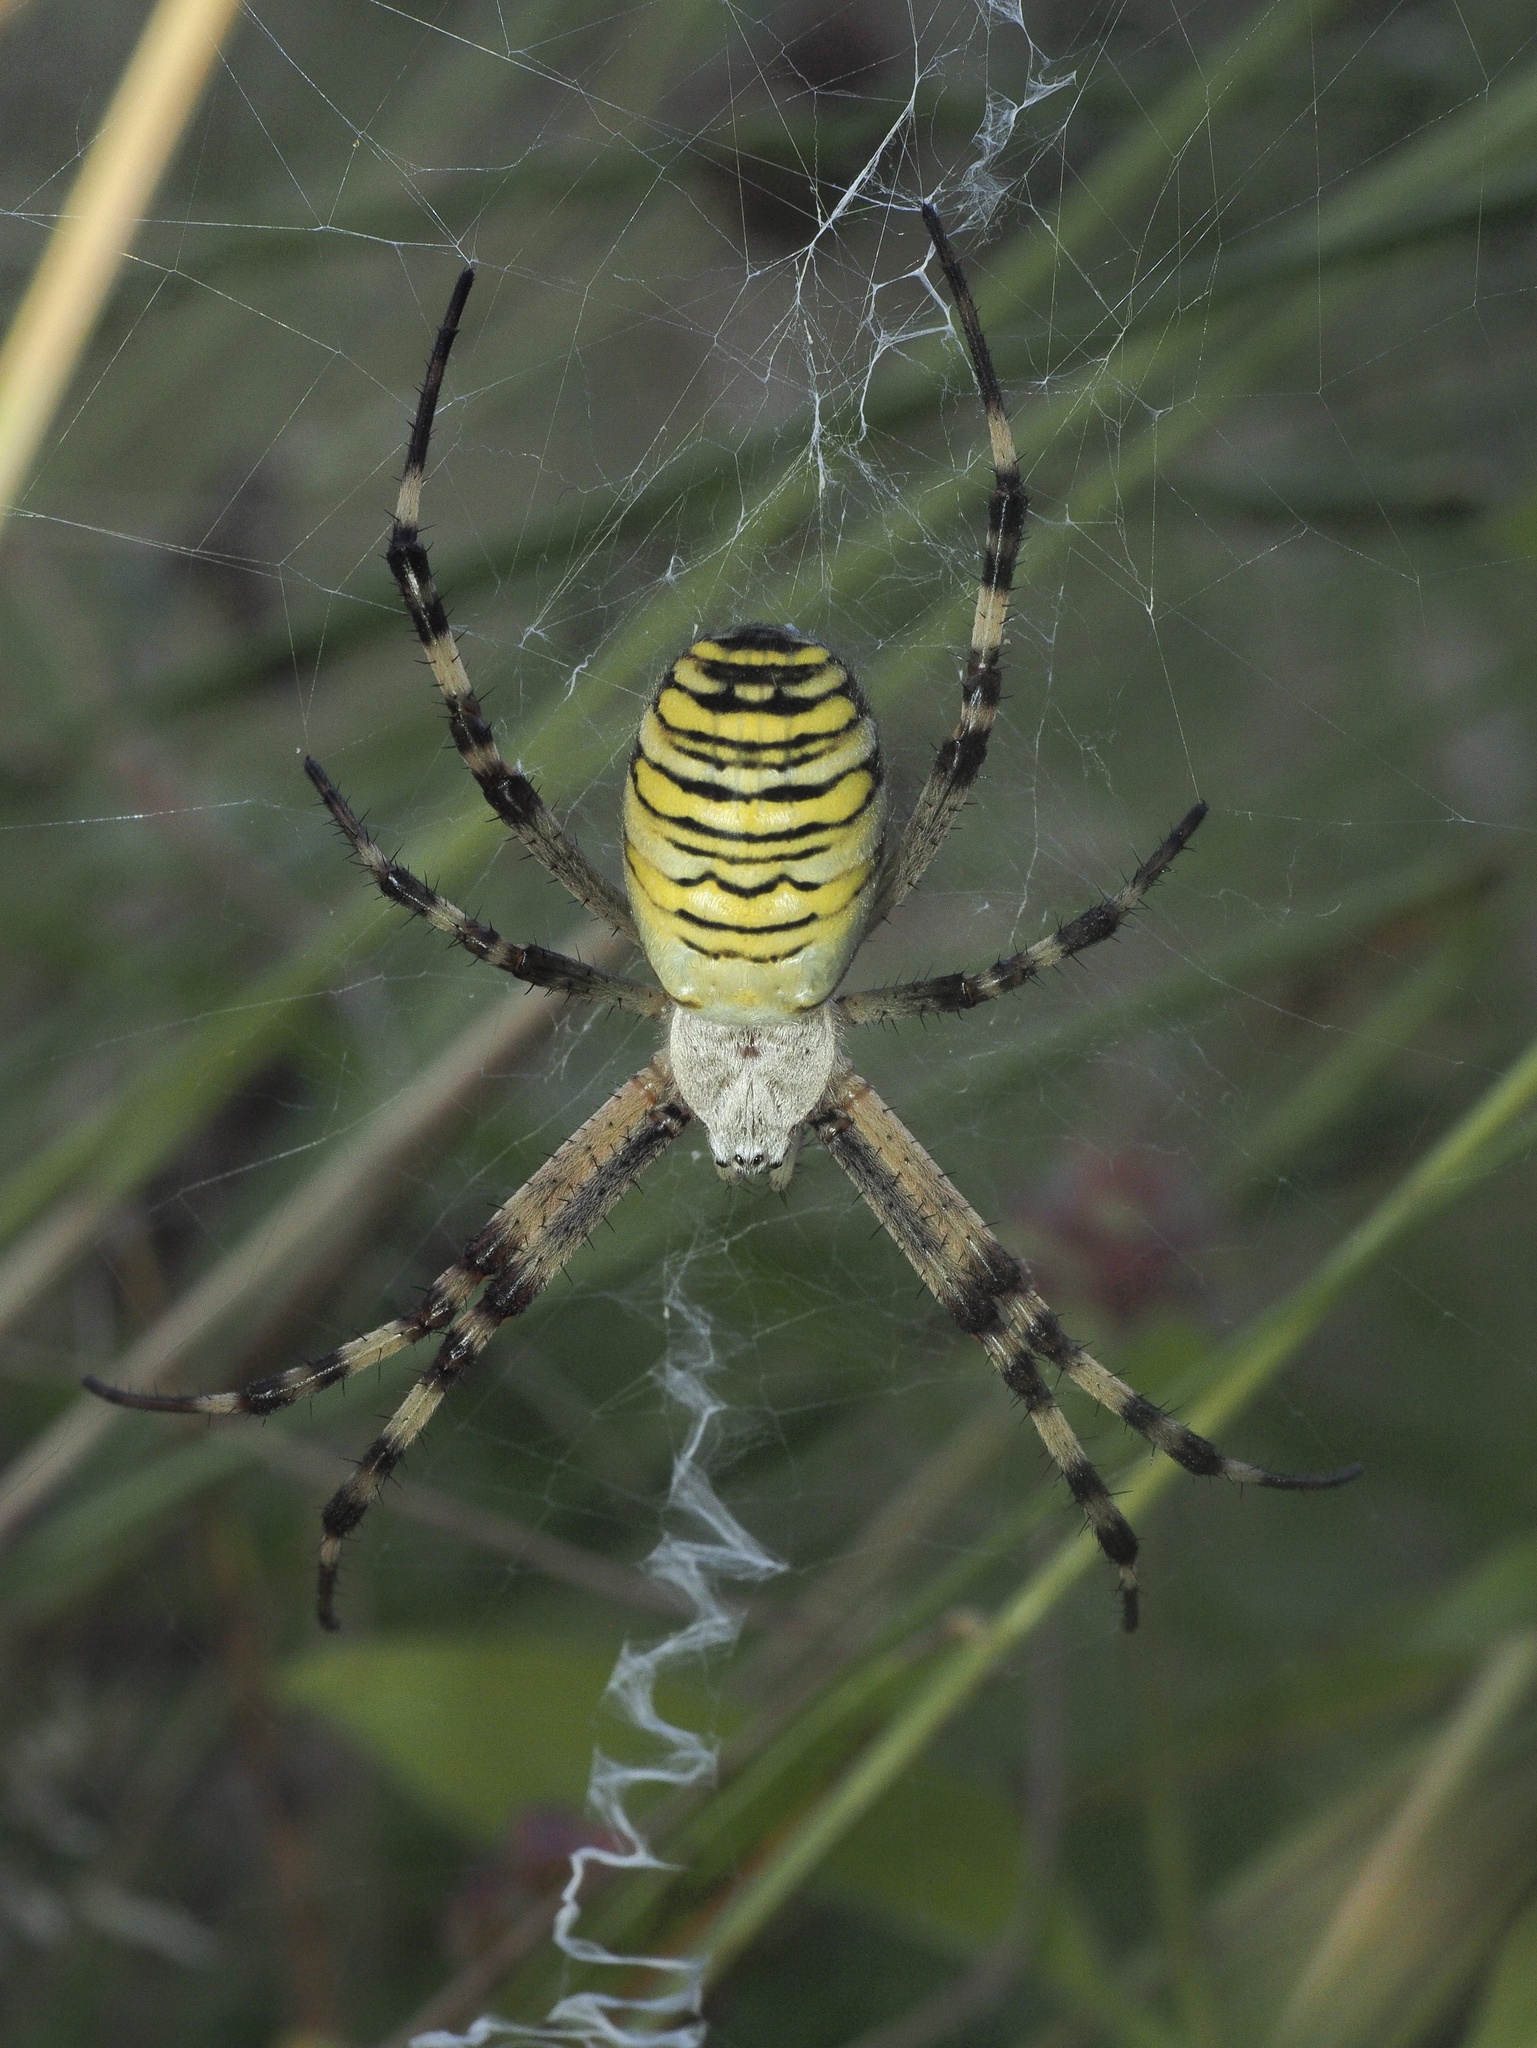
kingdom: Animalia
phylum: Arthropoda
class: Arachnida
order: Araneae
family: Araneidae
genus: Argiope
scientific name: Argiope bruennichi
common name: Wasp spider
